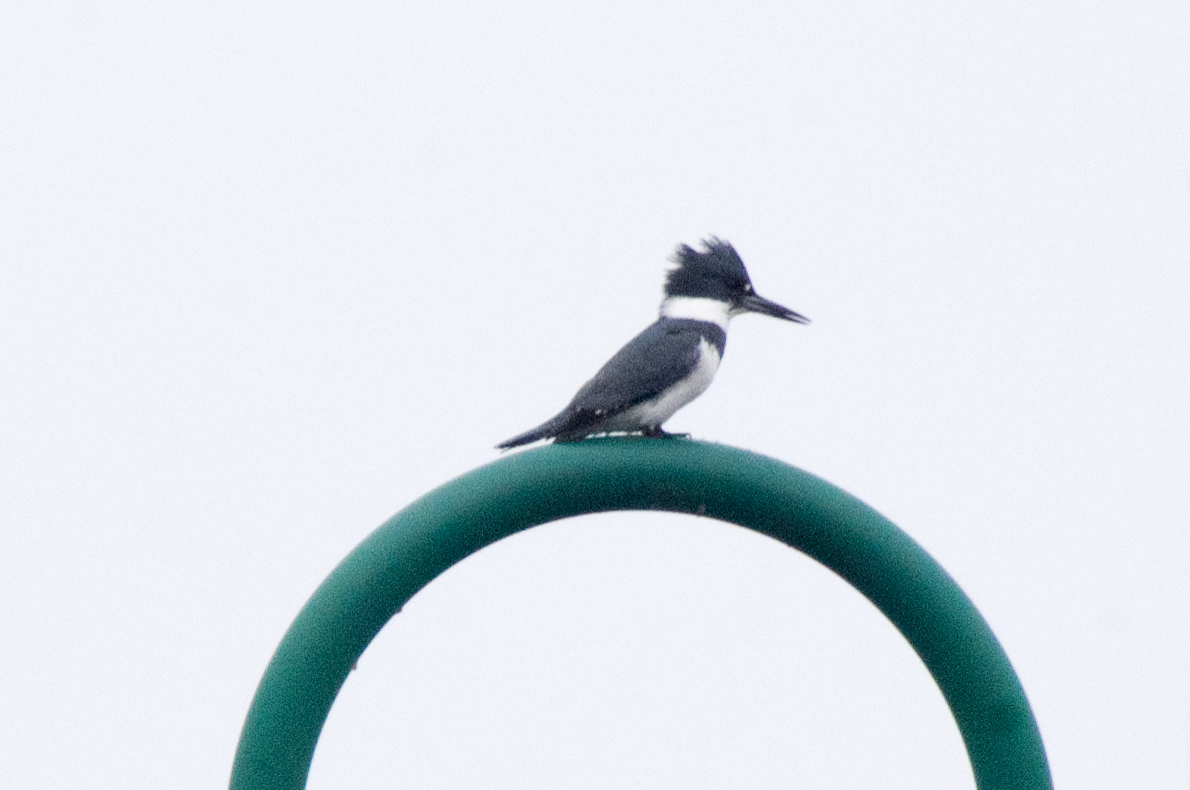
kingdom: Animalia
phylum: Chordata
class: Aves
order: Coraciiformes
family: Alcedinidae
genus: Megaceryle
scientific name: Megaceryle alcyon
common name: Belted kingfisher
